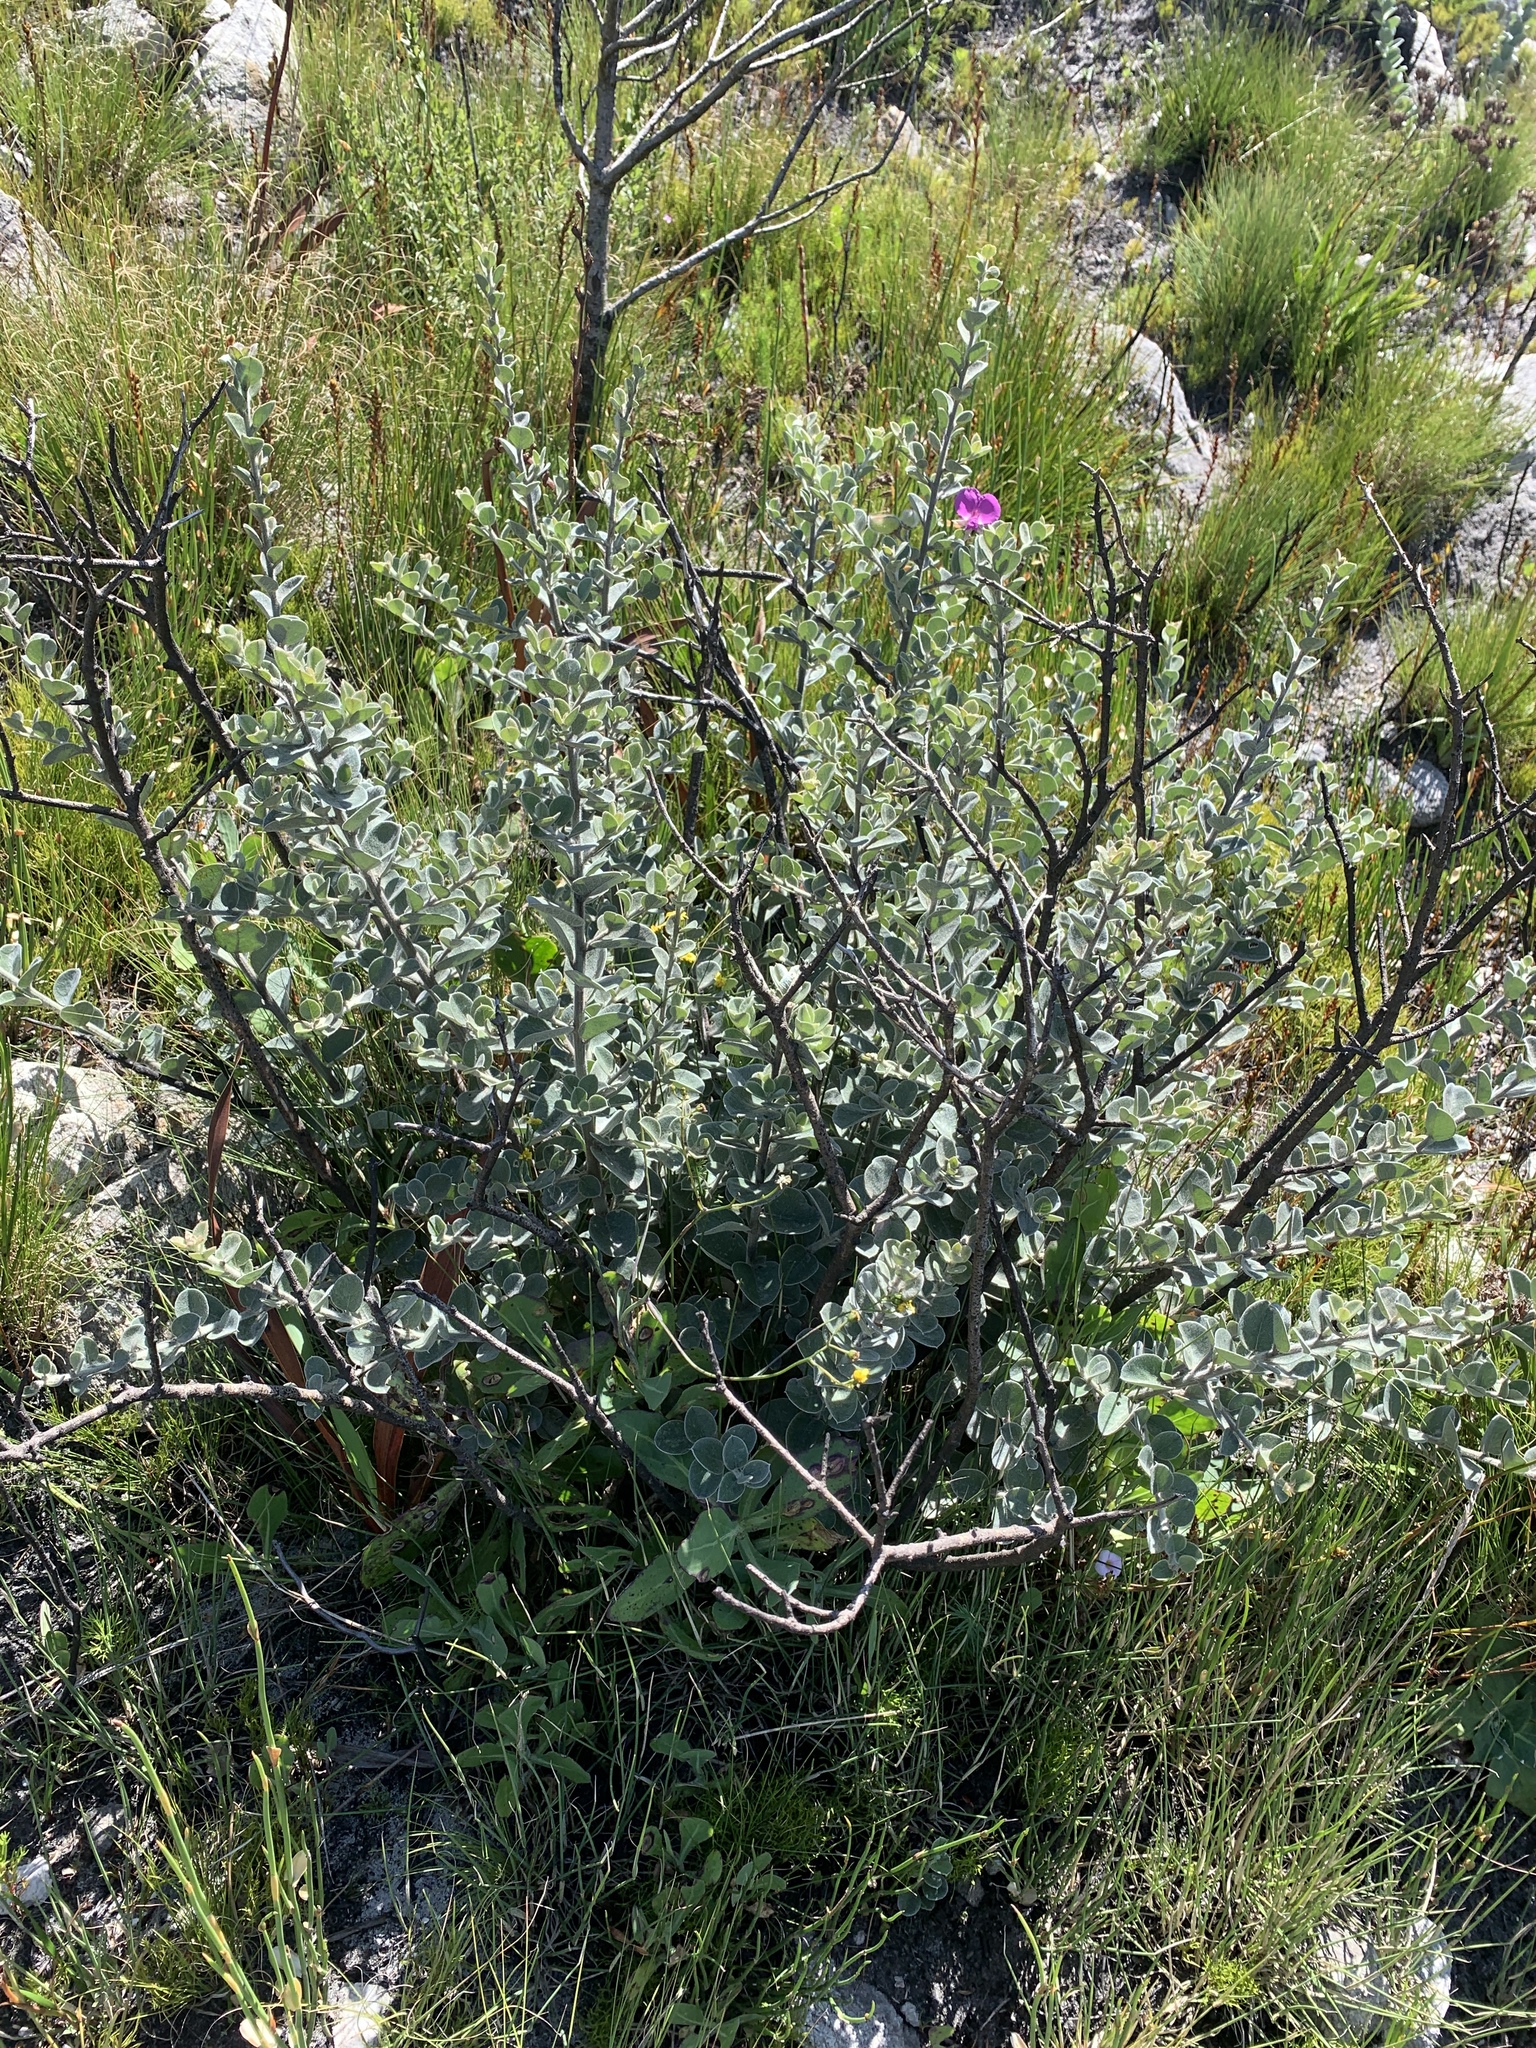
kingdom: Plantae
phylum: Tracheophyta
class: Magnoliopsida
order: Fabales
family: Fabaceae
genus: Podalyria
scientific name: Podalyria hirsuta
